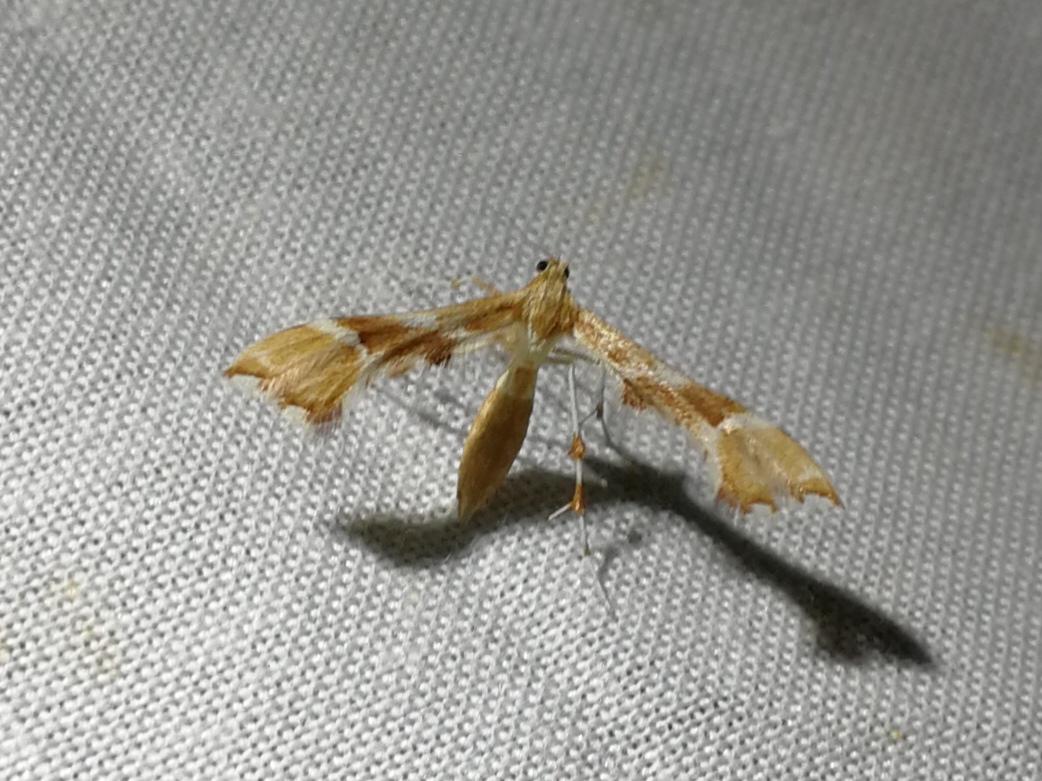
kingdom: Animalia
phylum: Arthropoda
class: Insecta
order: Lepidoptera
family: Pterophoridae
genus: Cnaemidophorus
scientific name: Cnaemidophorus rhododactyla
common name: Rose plume
